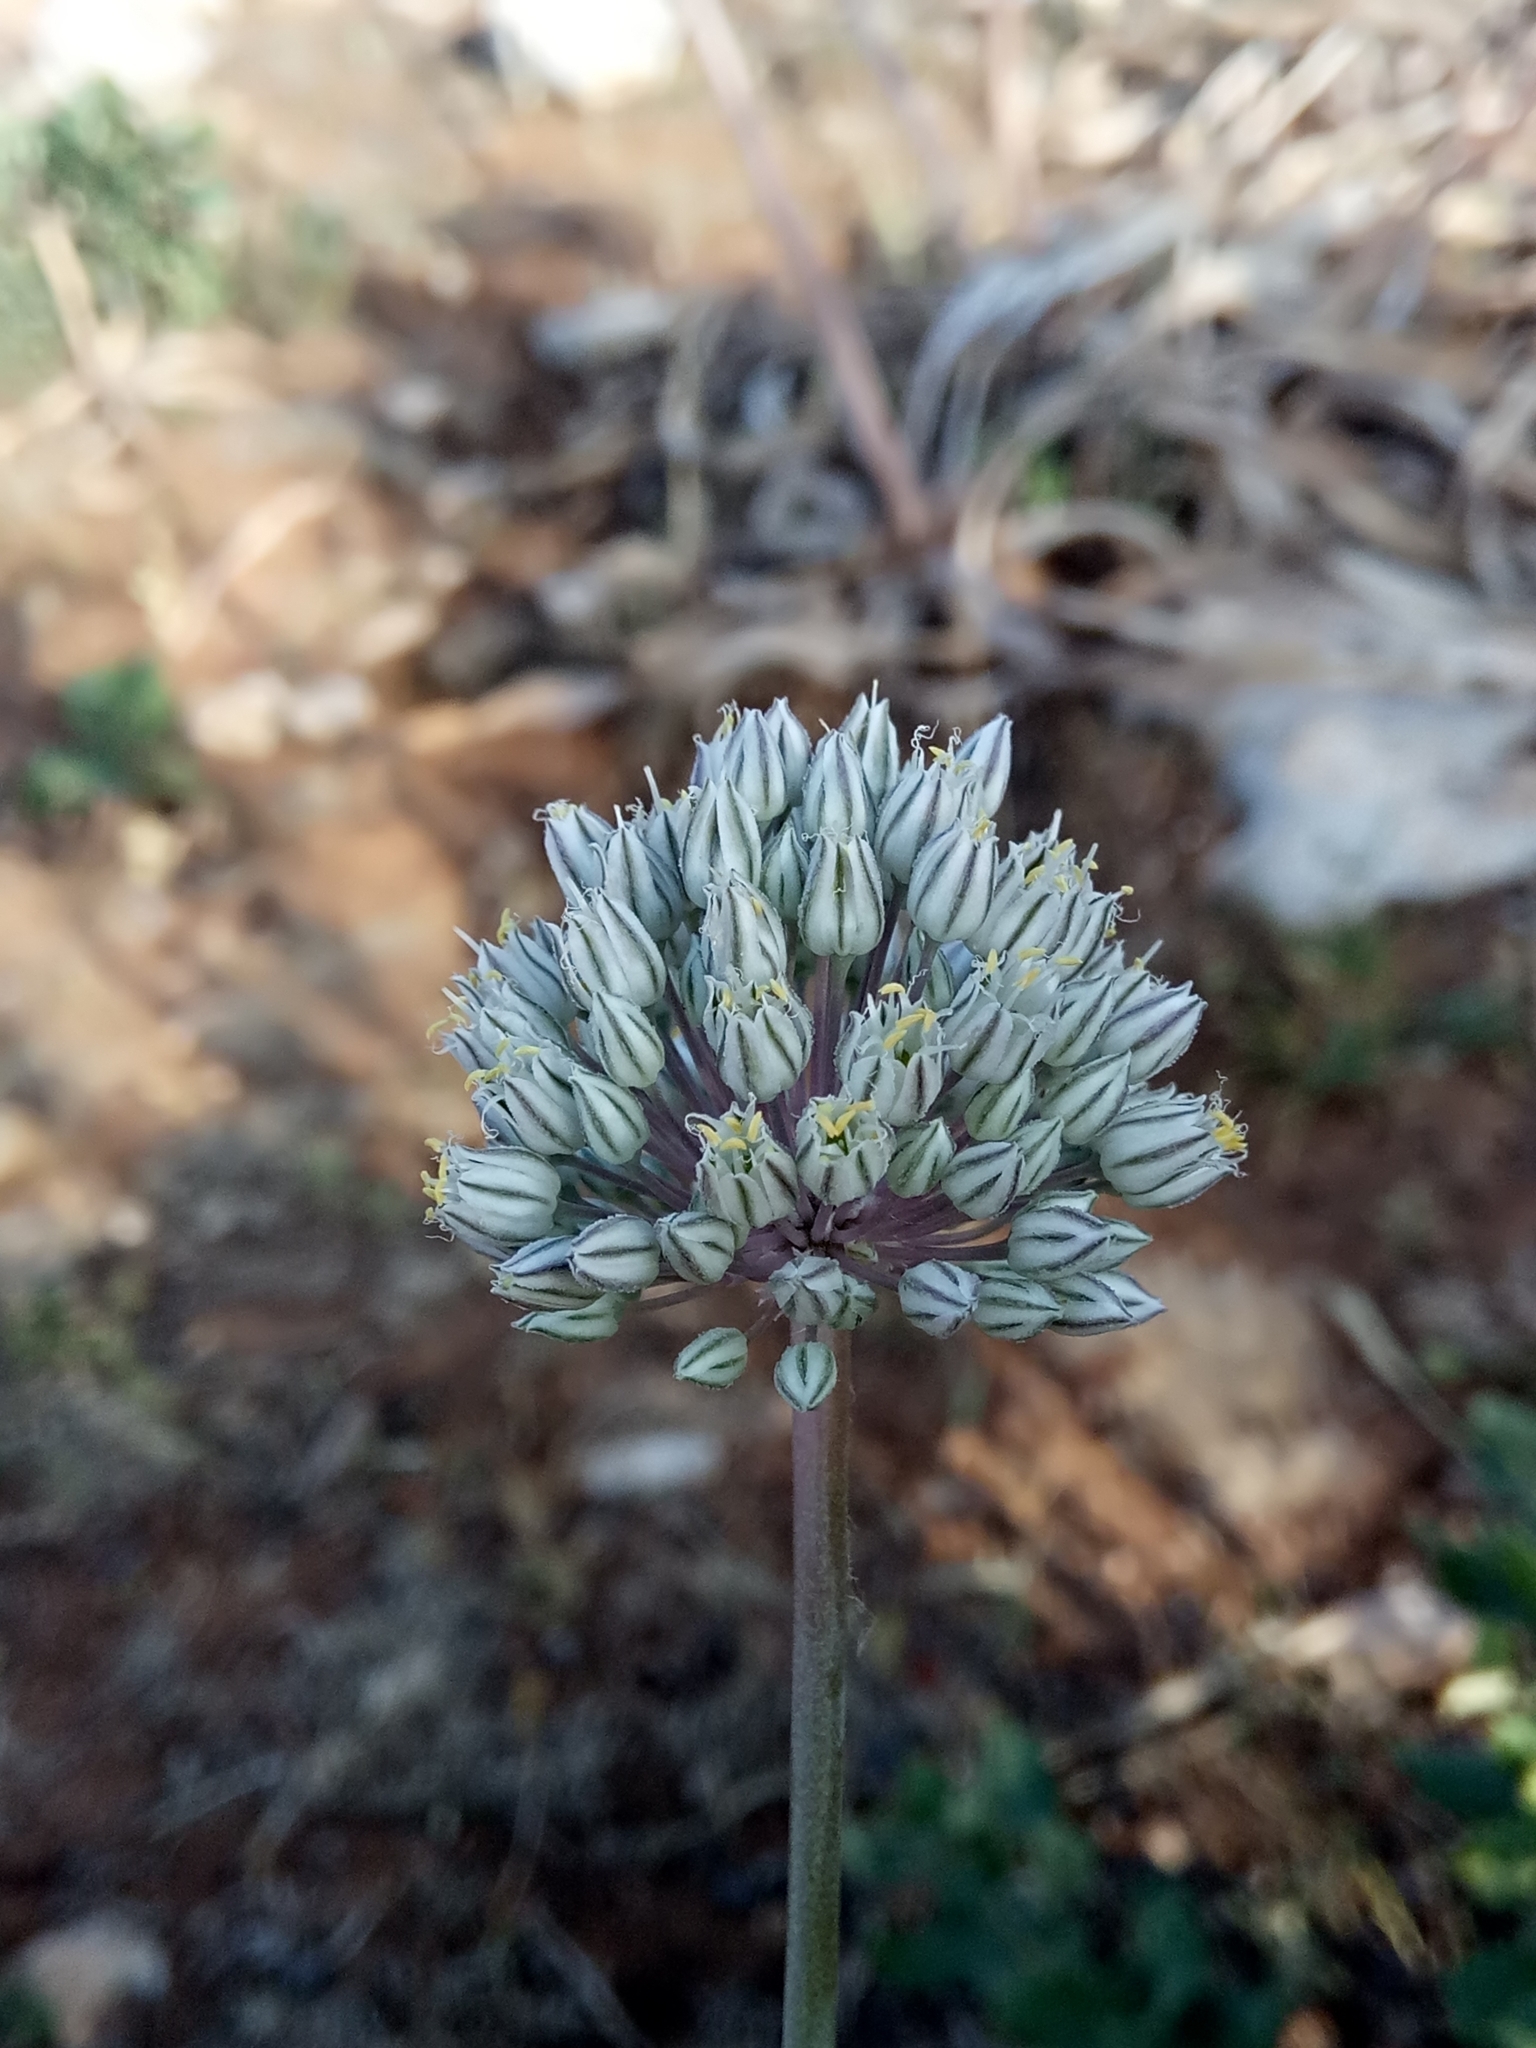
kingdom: Plantae
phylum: Tracheophyta
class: Liliopsida
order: Asparagales
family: Amaryllidaceae
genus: Allium
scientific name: Allium ampeloprasum
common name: Wild leek
